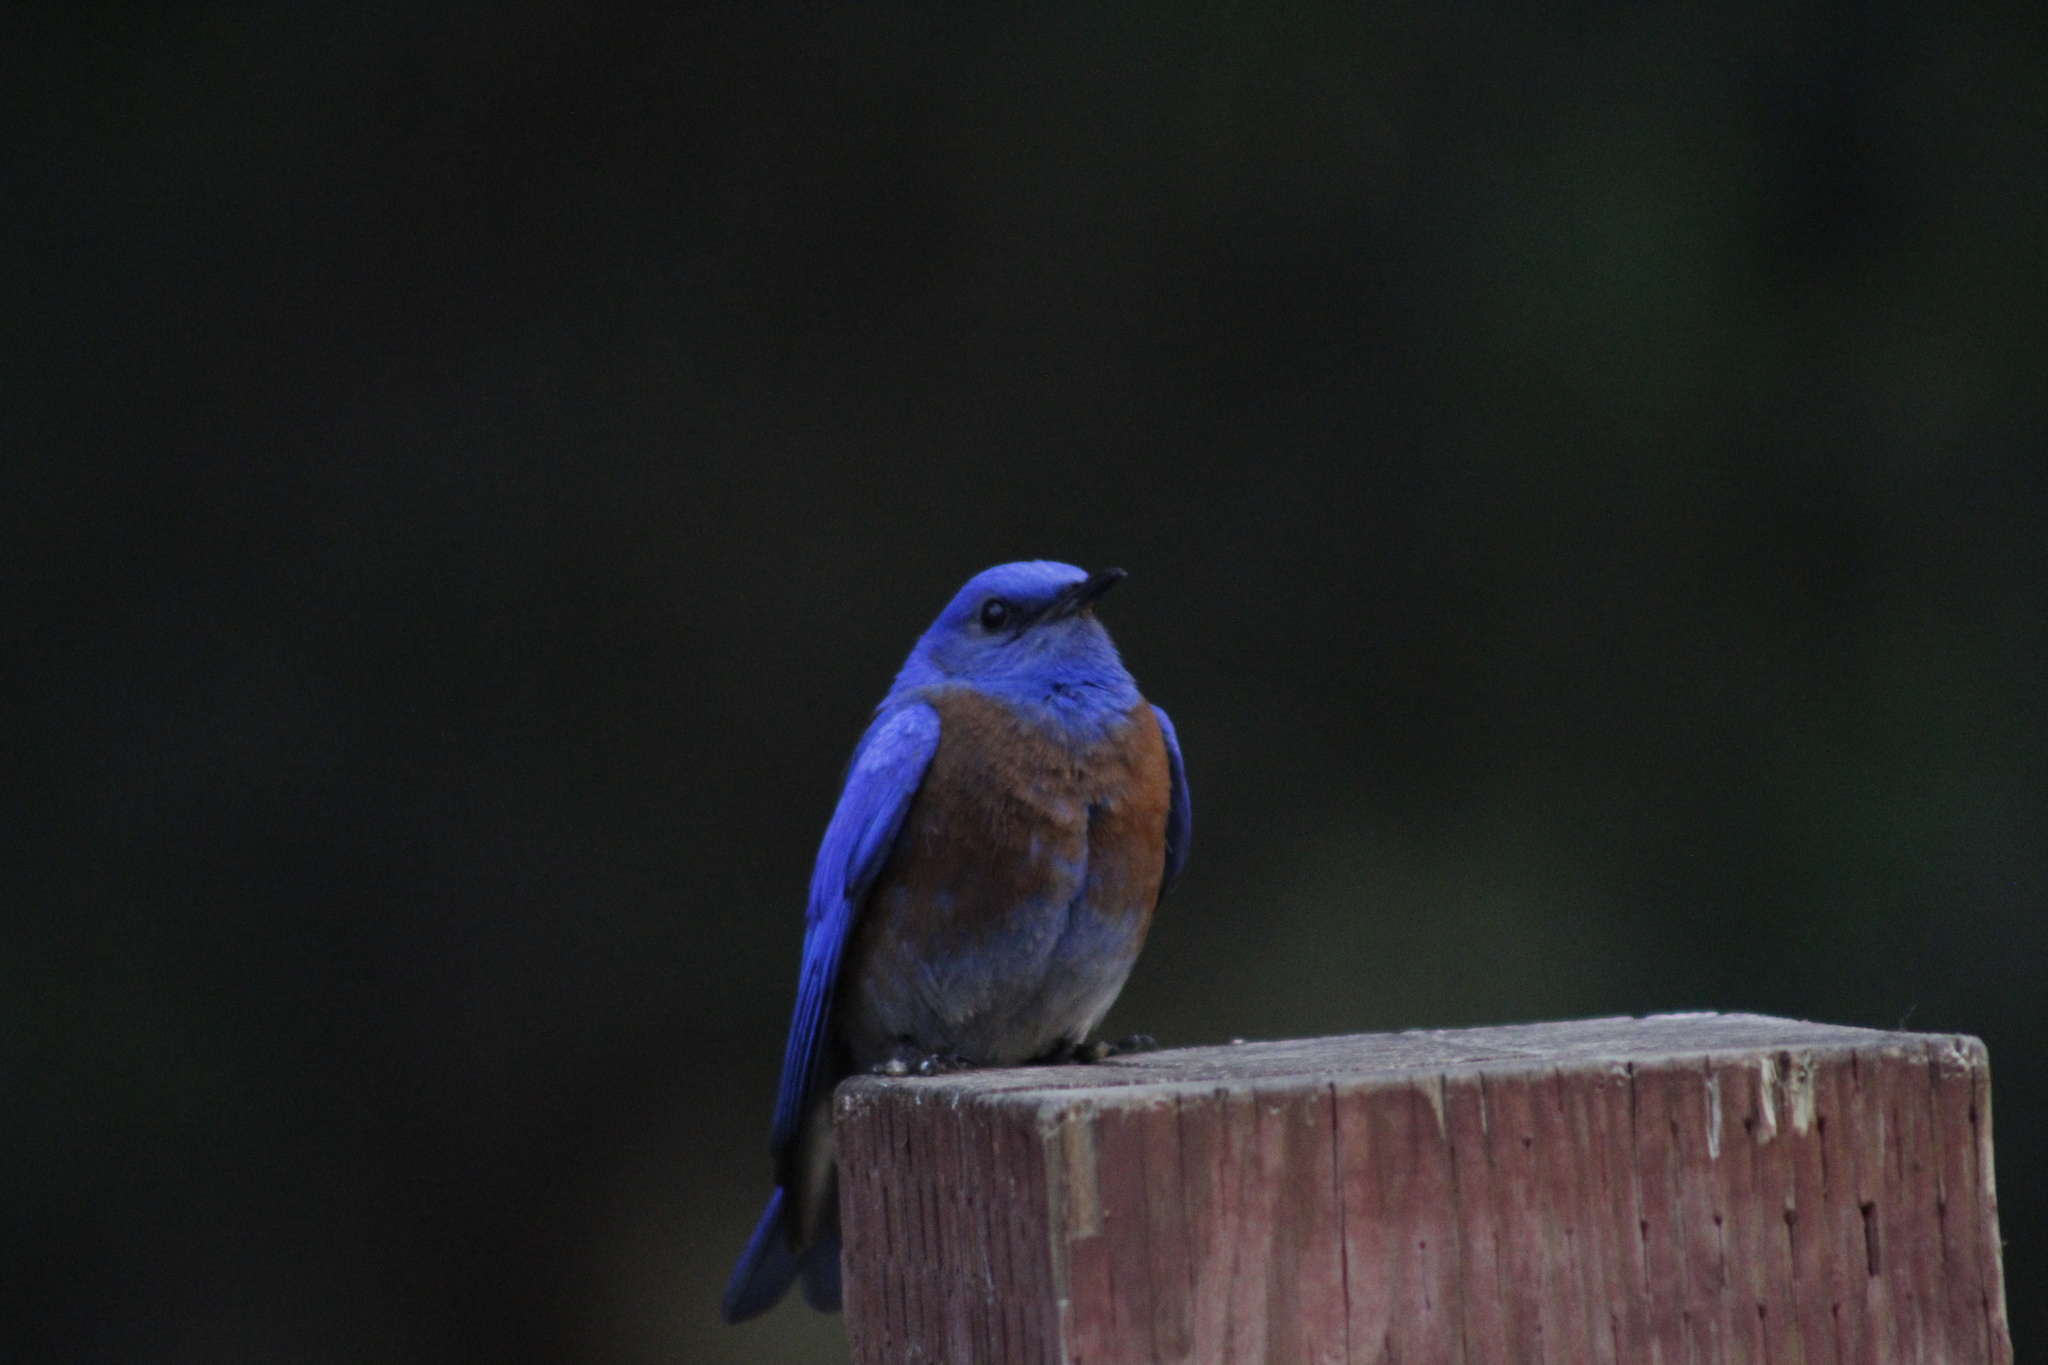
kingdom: Animalia
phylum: Chordata
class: Aves
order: Passeriformes
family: Turdidae
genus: Sialia
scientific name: Sialia mexicana
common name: Western bluebird
